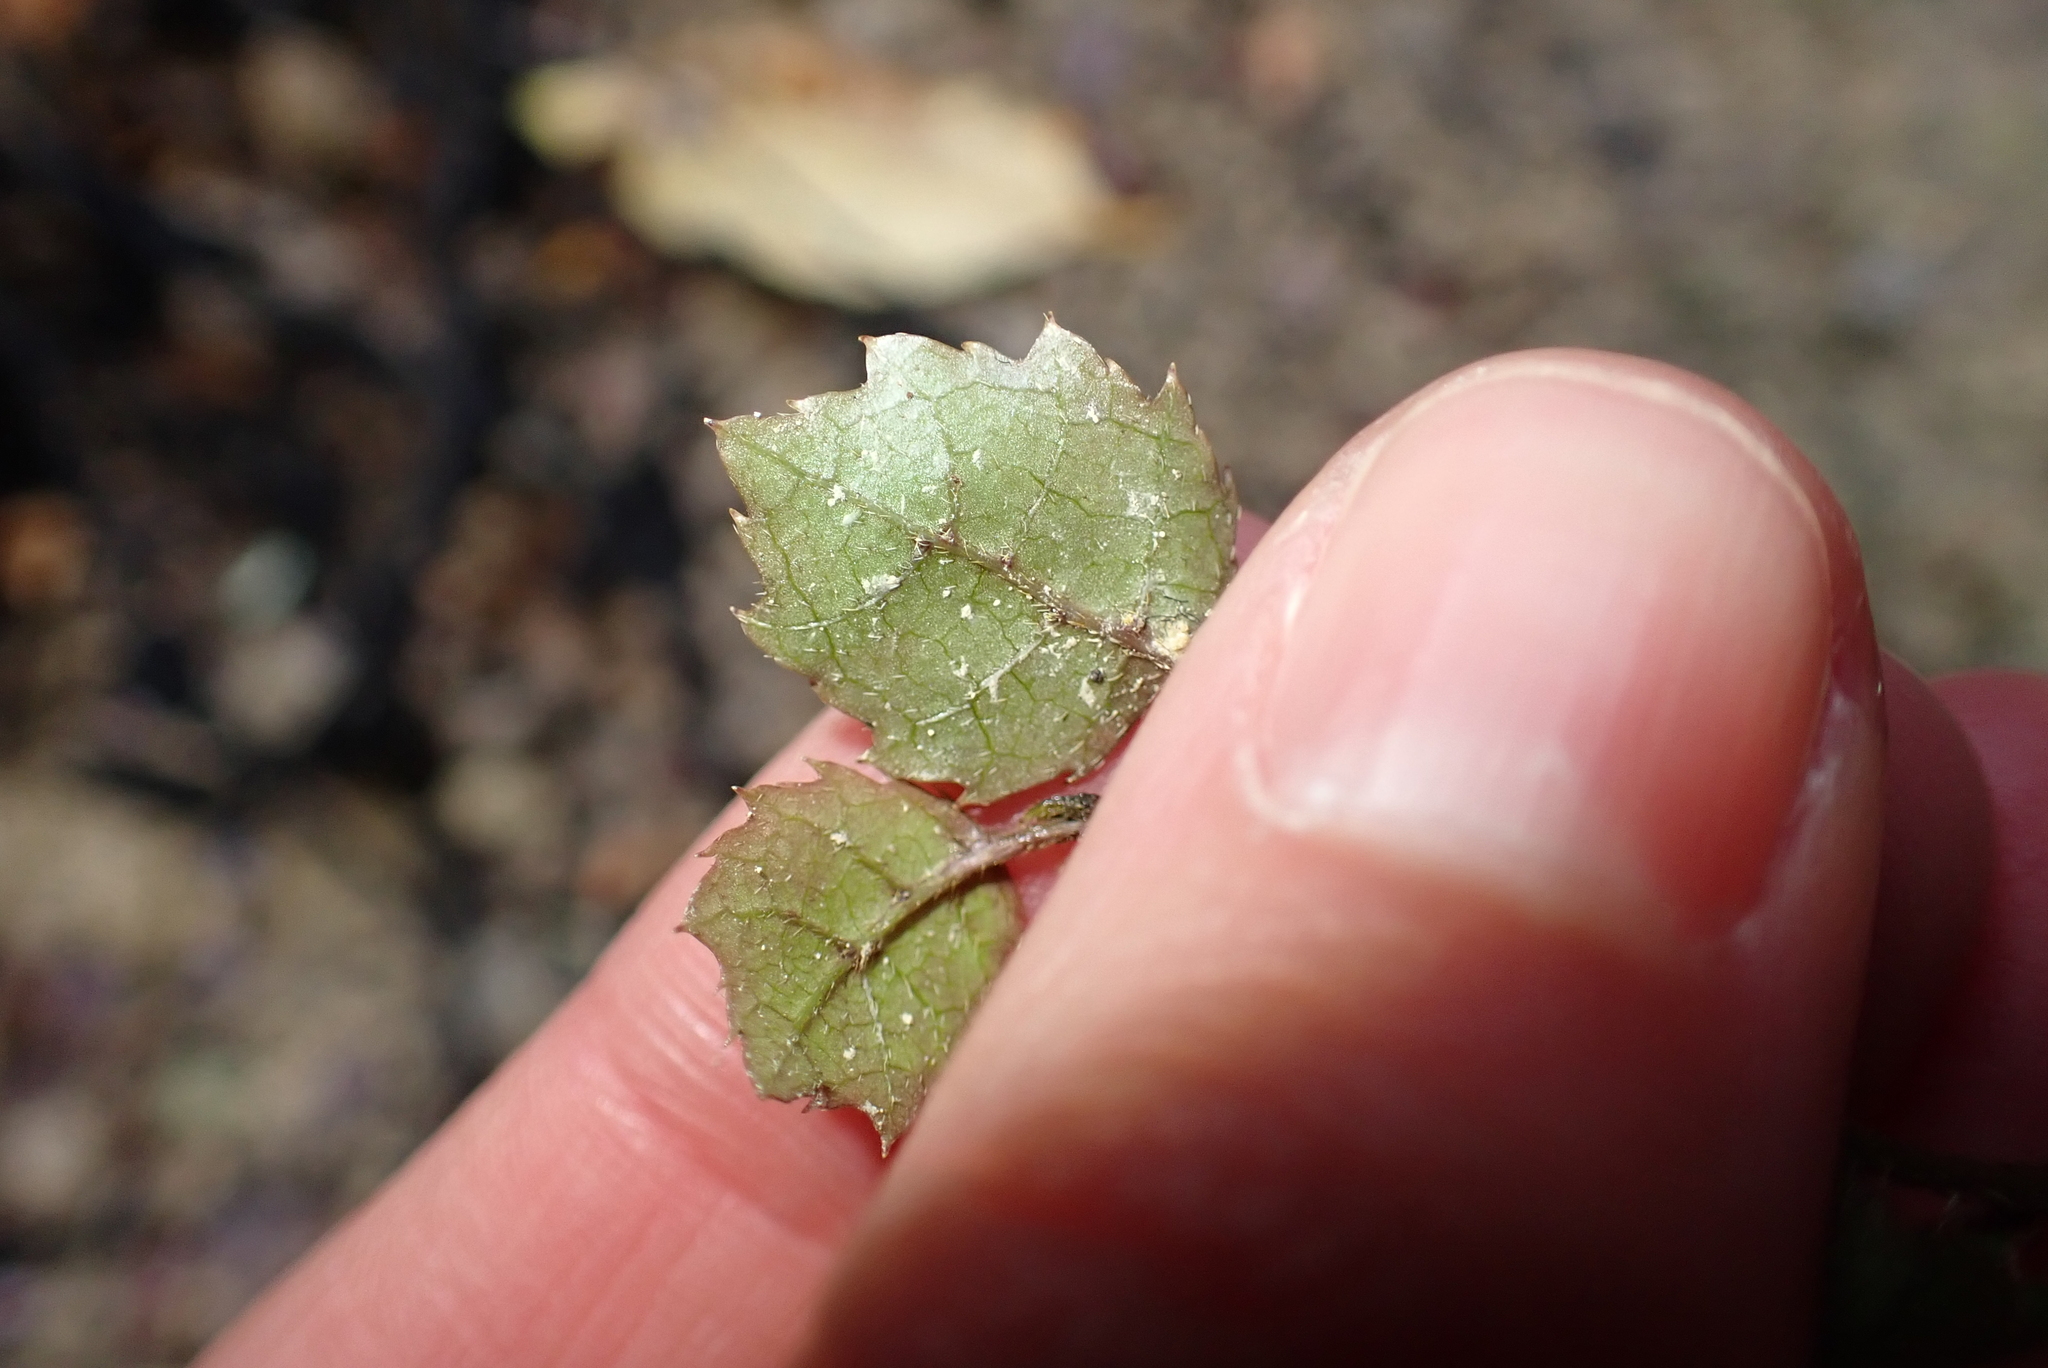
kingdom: Plantae
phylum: Tracheophyta
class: Magnoliopsida
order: Asterales
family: Rousseaceae
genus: Carpodetus
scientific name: Carpodetus serratus
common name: White mapau
